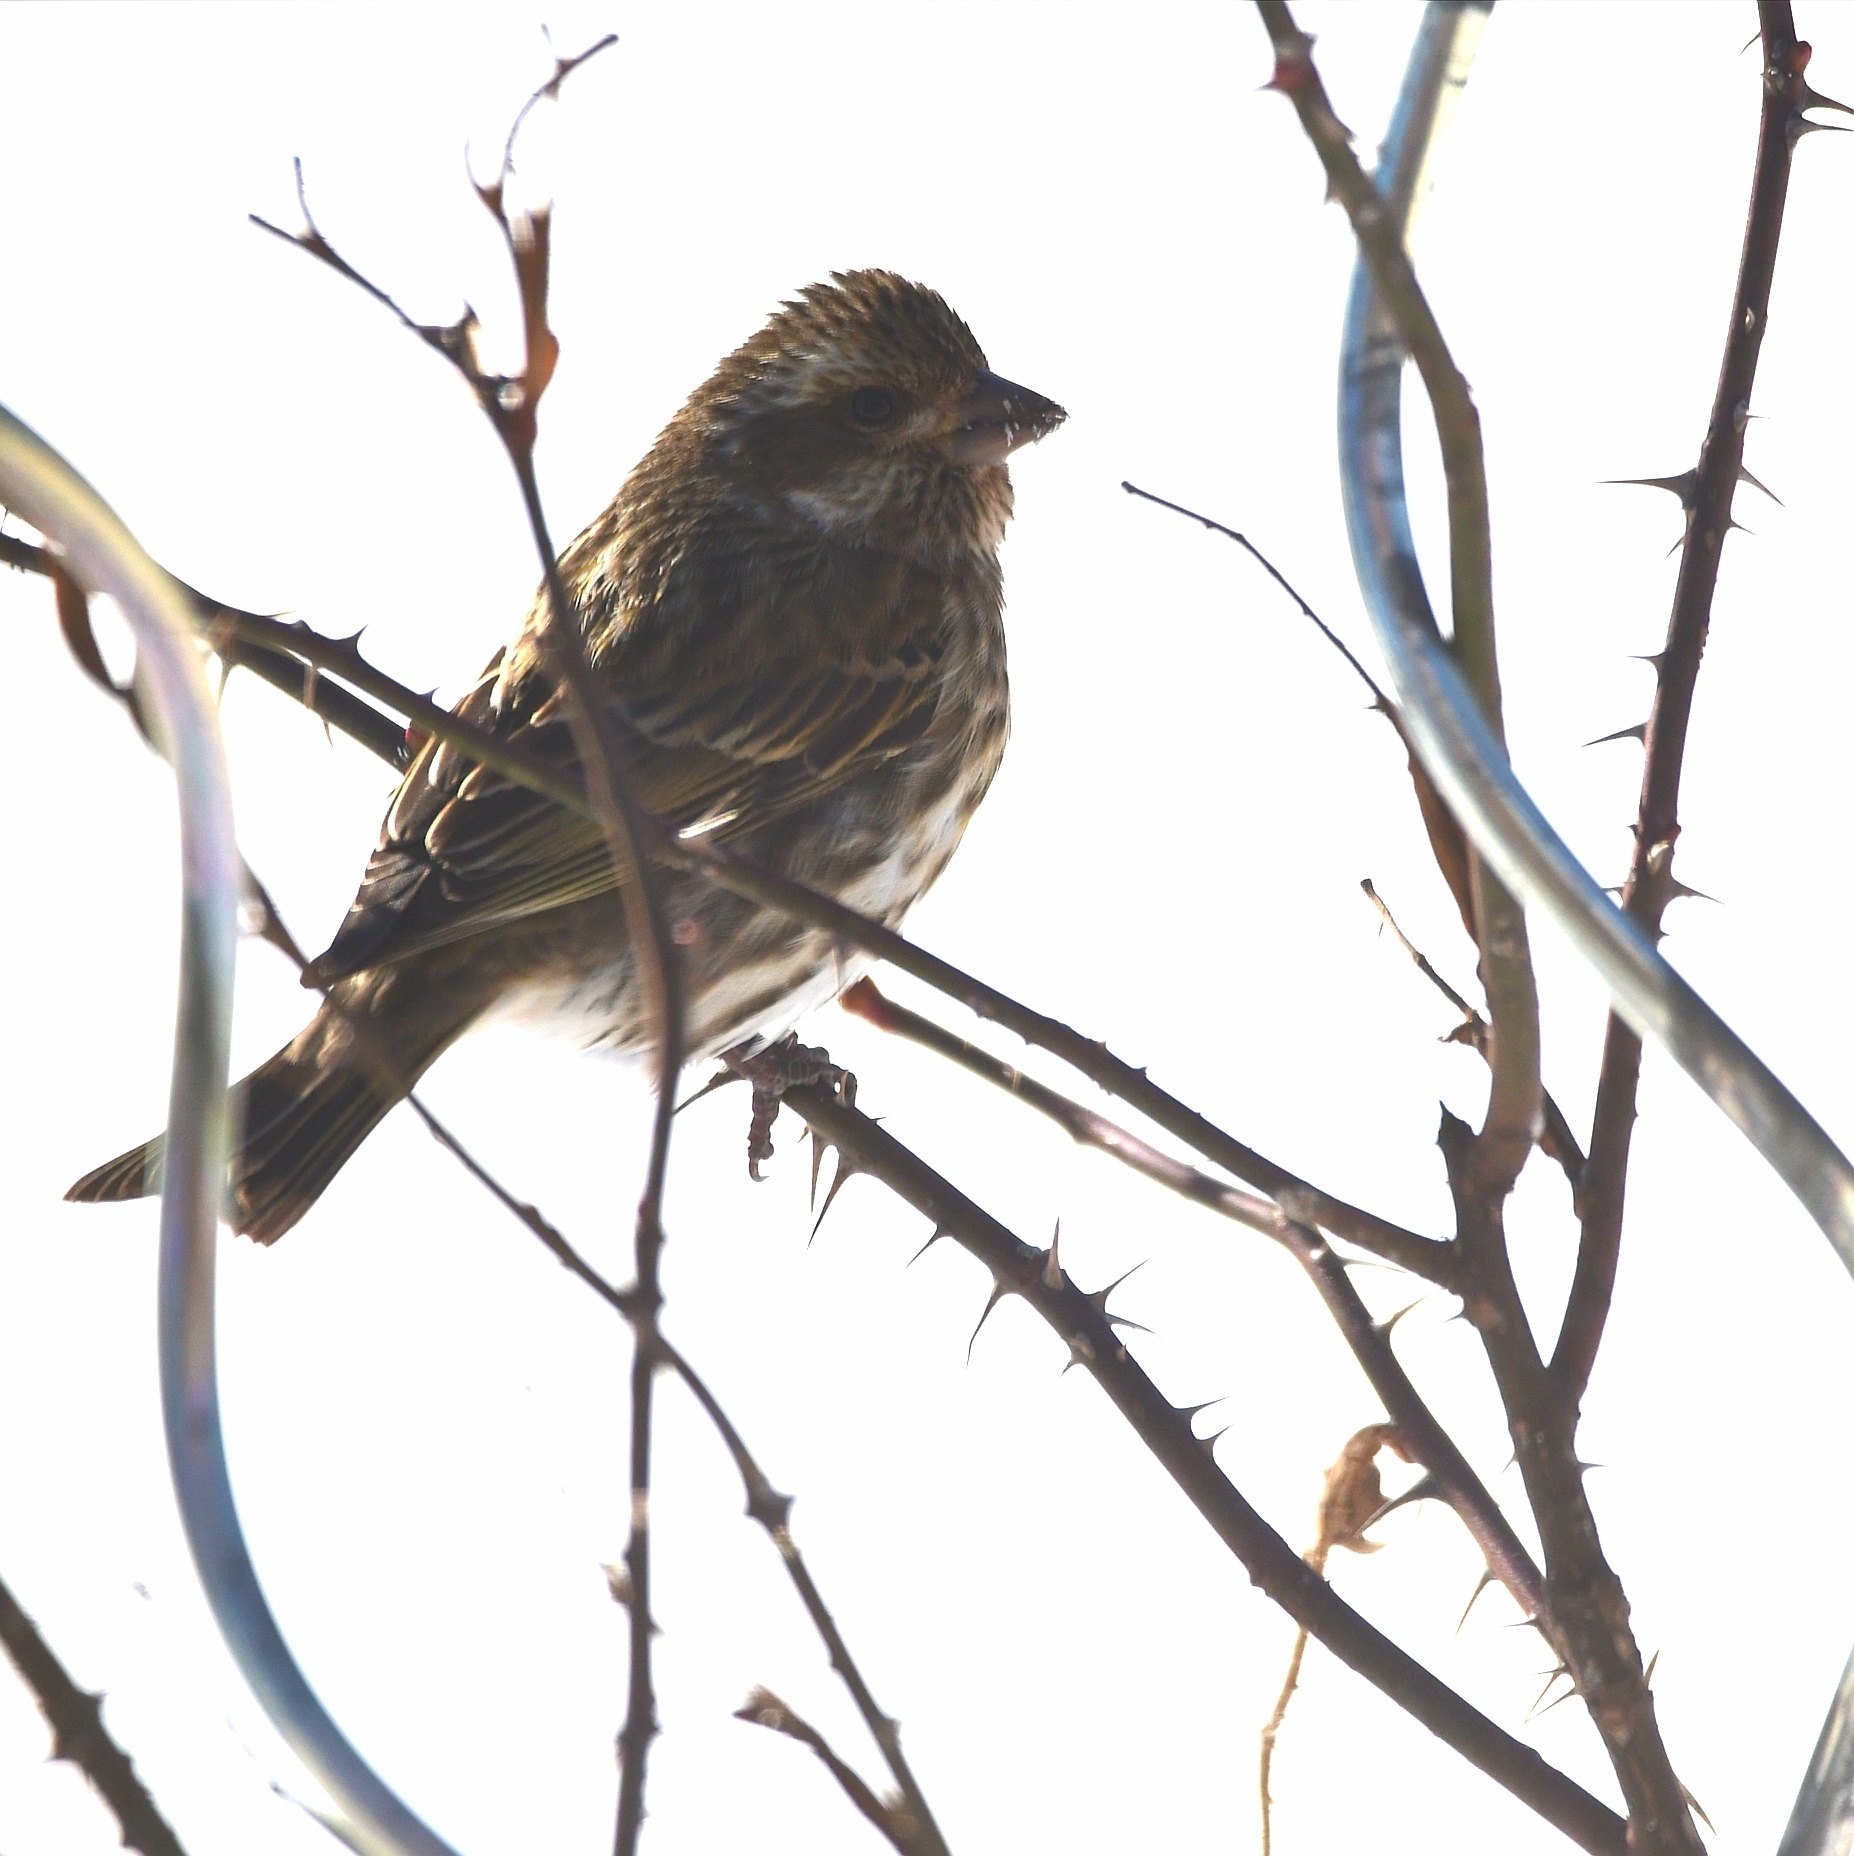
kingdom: Animalia
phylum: Chordata
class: Aves
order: Passeriformes
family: Fringillidae
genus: Haemorhous
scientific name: Haemorhous purpureus
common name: Purple finch
